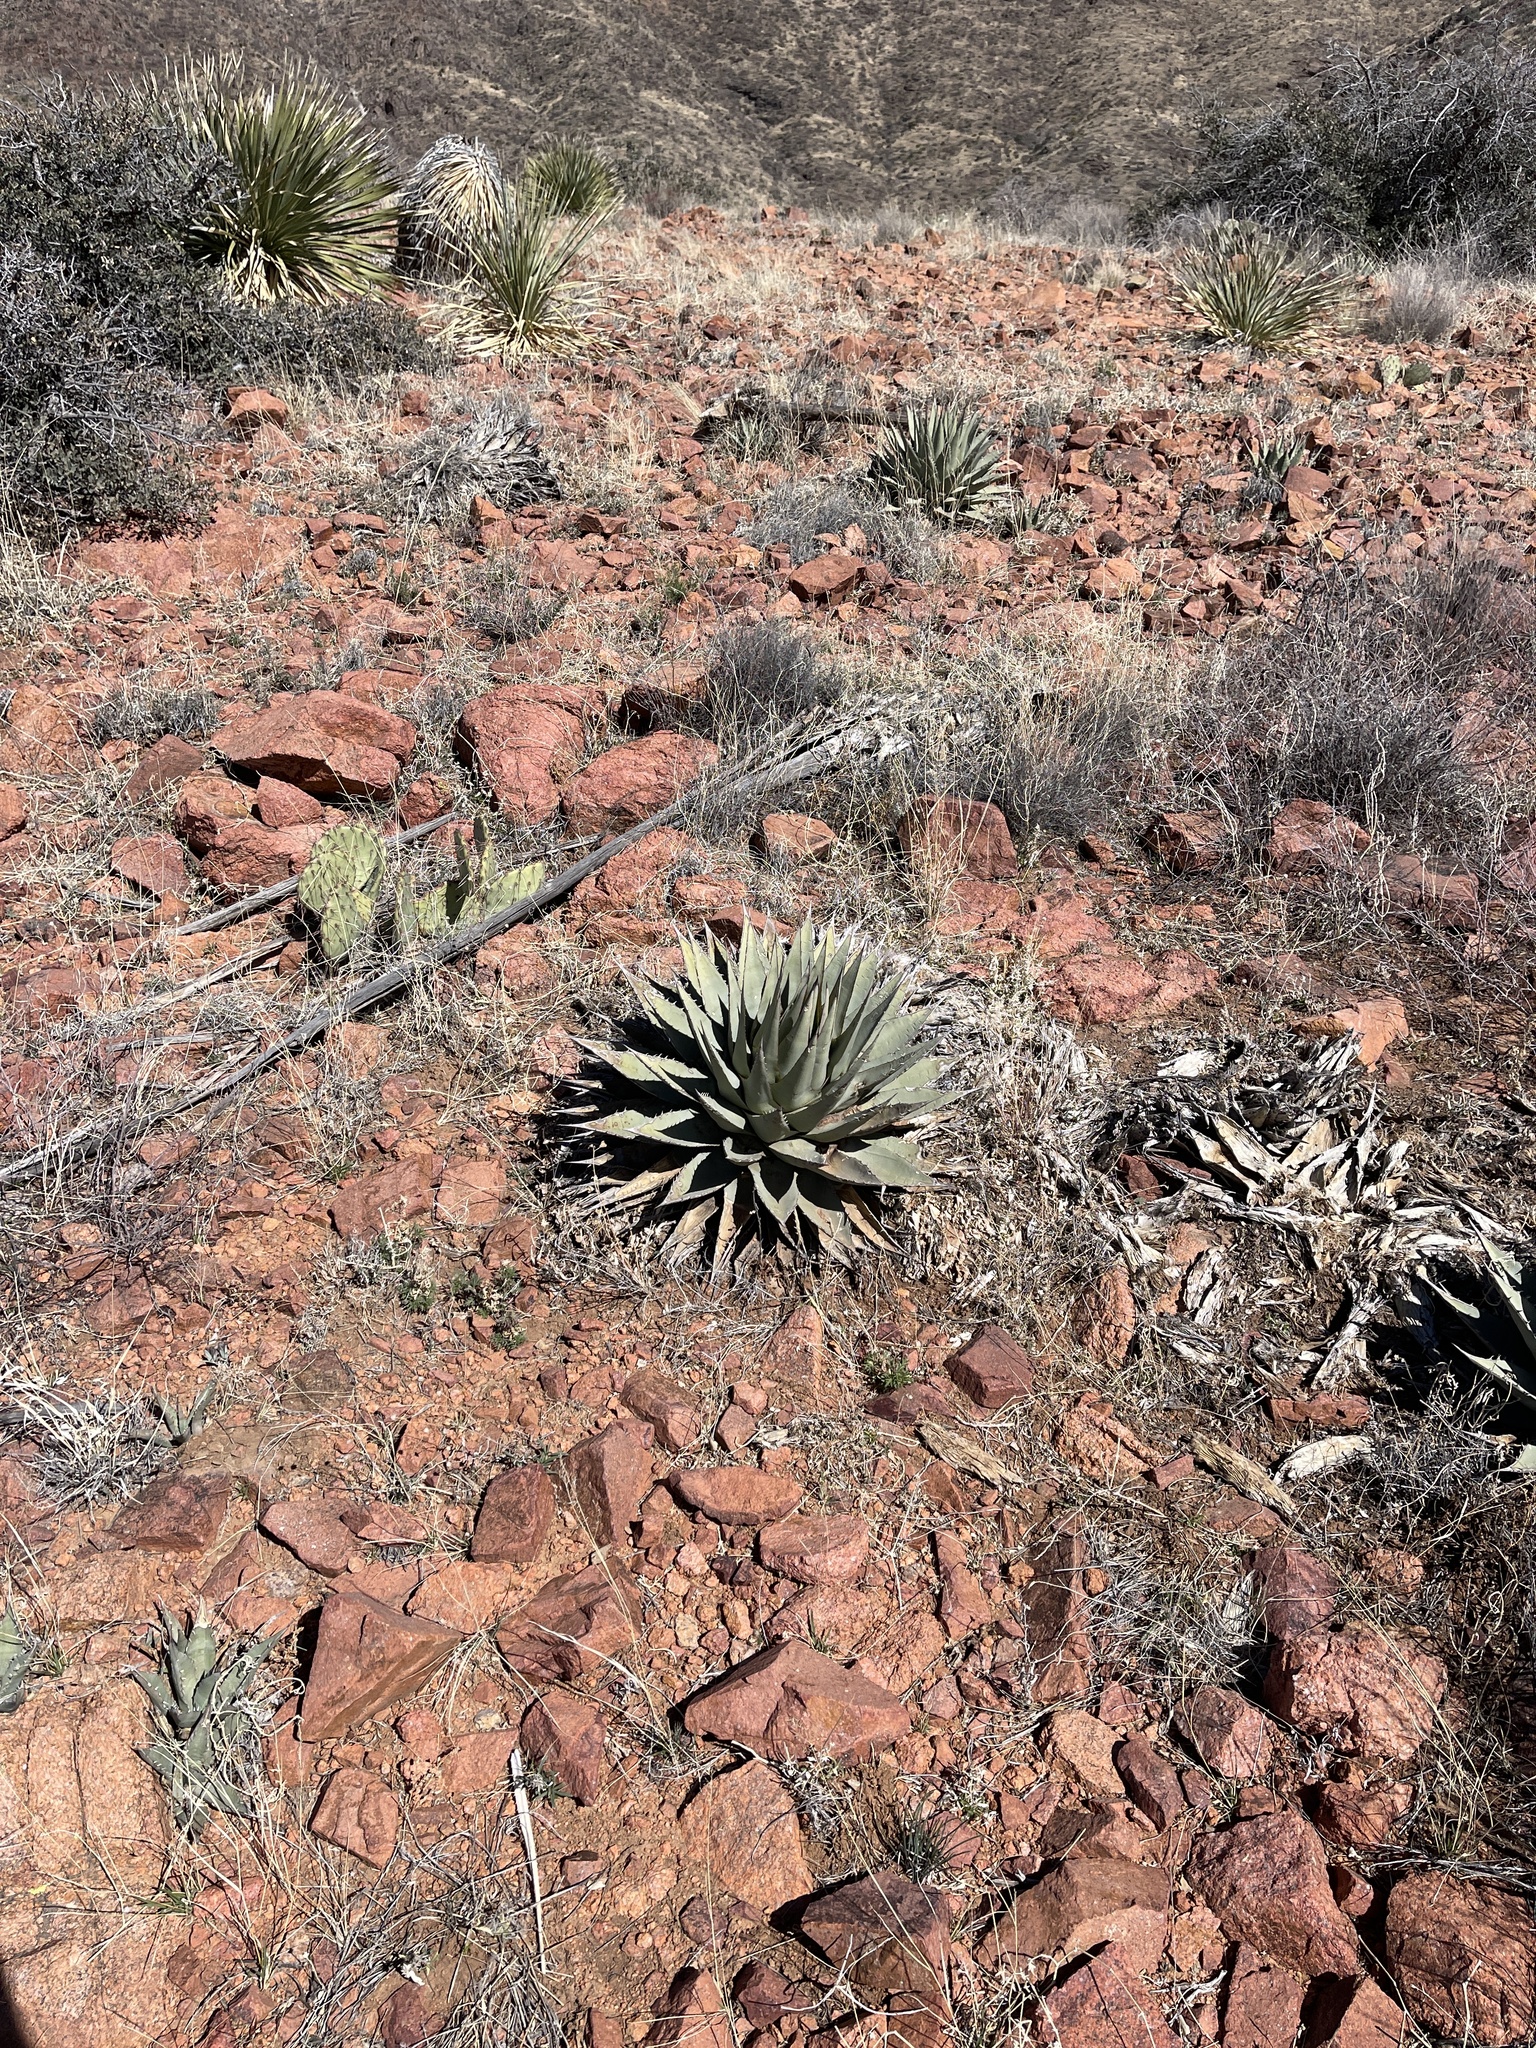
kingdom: Plantae
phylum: Tracheophyta
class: Liliopsida
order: Asparagales
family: Asparagaceae
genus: Agave
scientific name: Agave parryi
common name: Parry's agave
